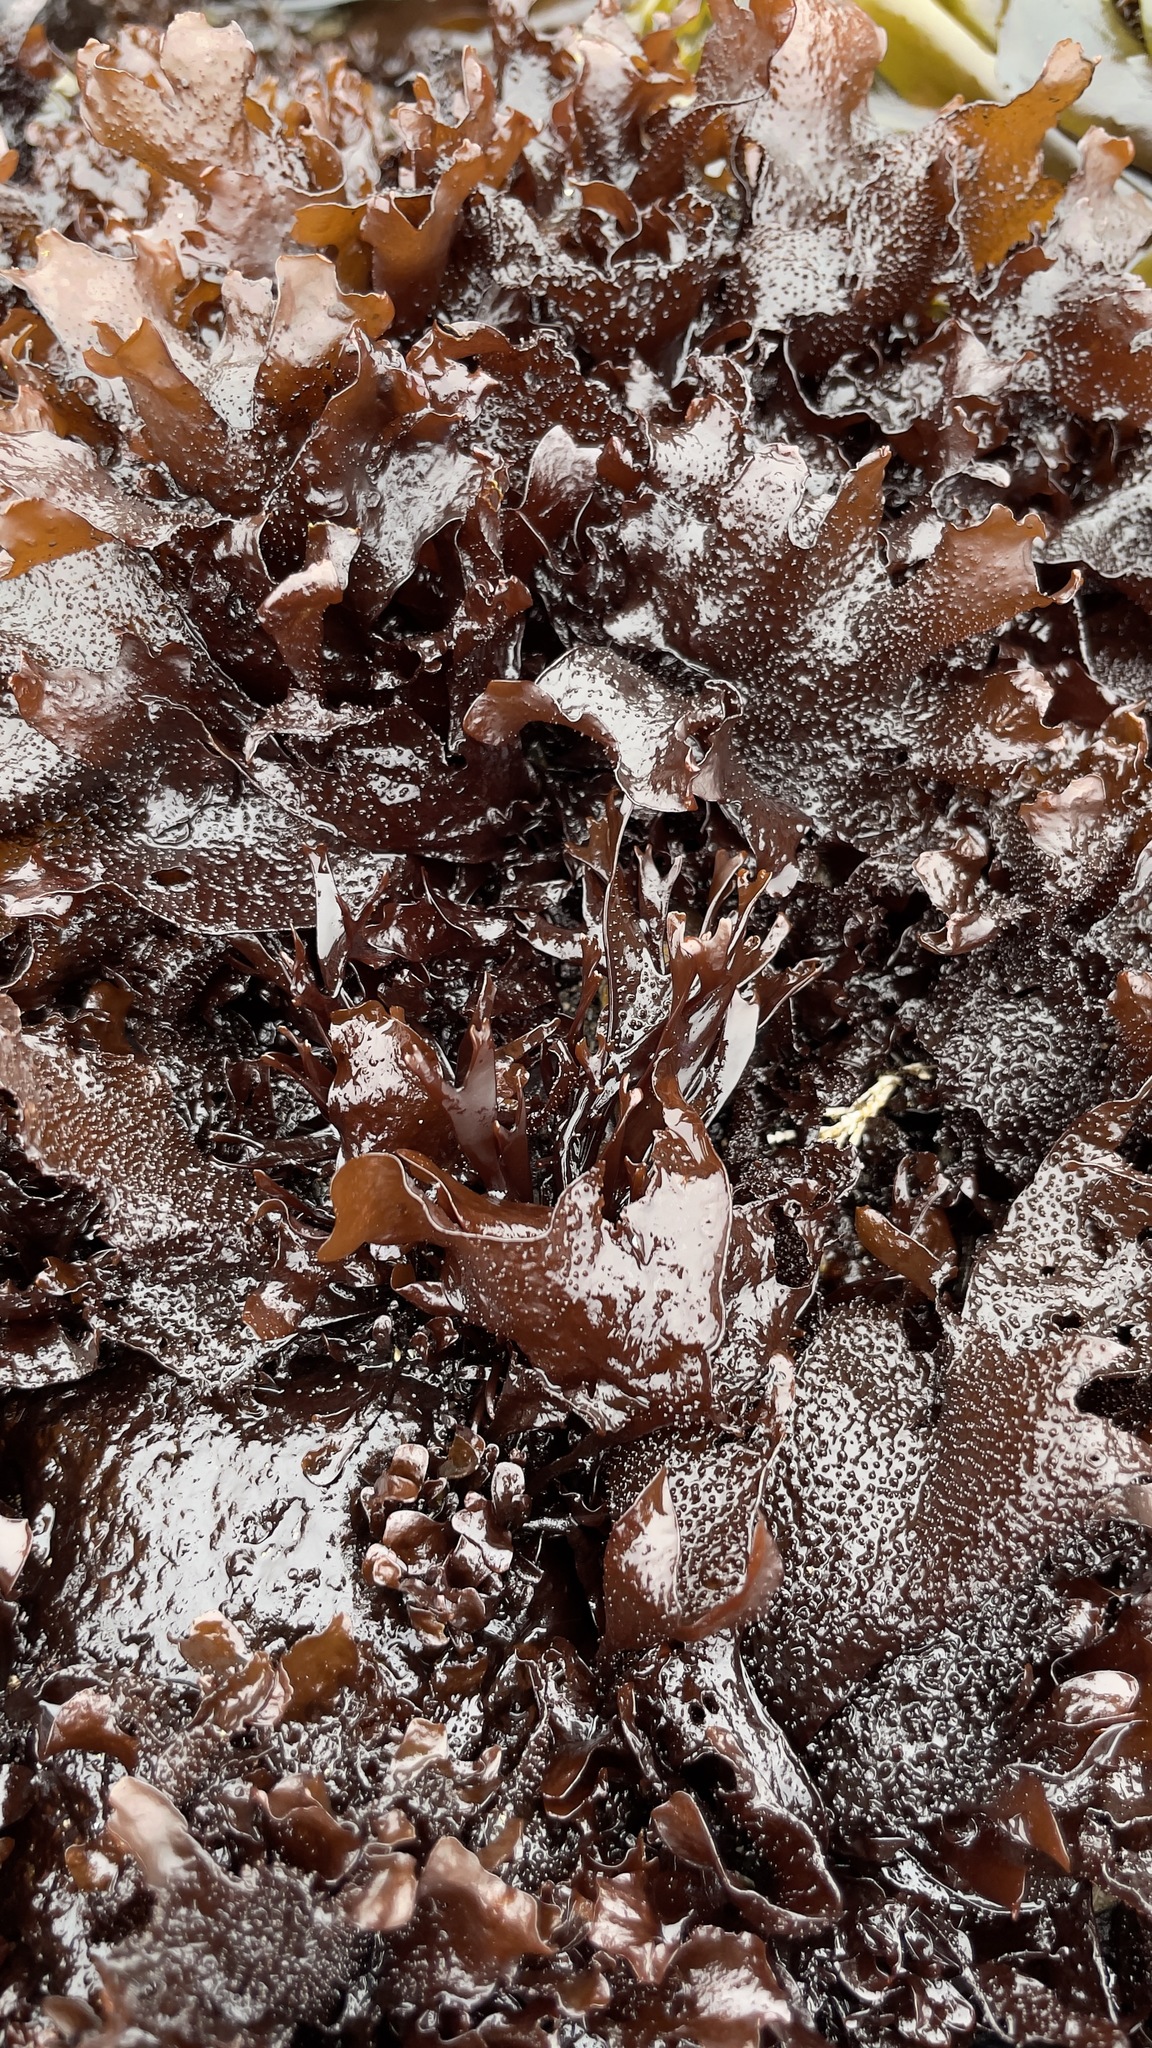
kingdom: Plantae
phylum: Rhodophyta
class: Florideophyceae
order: Gigartinales
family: Phyllophoraceae
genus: Mastocarpus
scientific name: Mastocarpus papillatus
